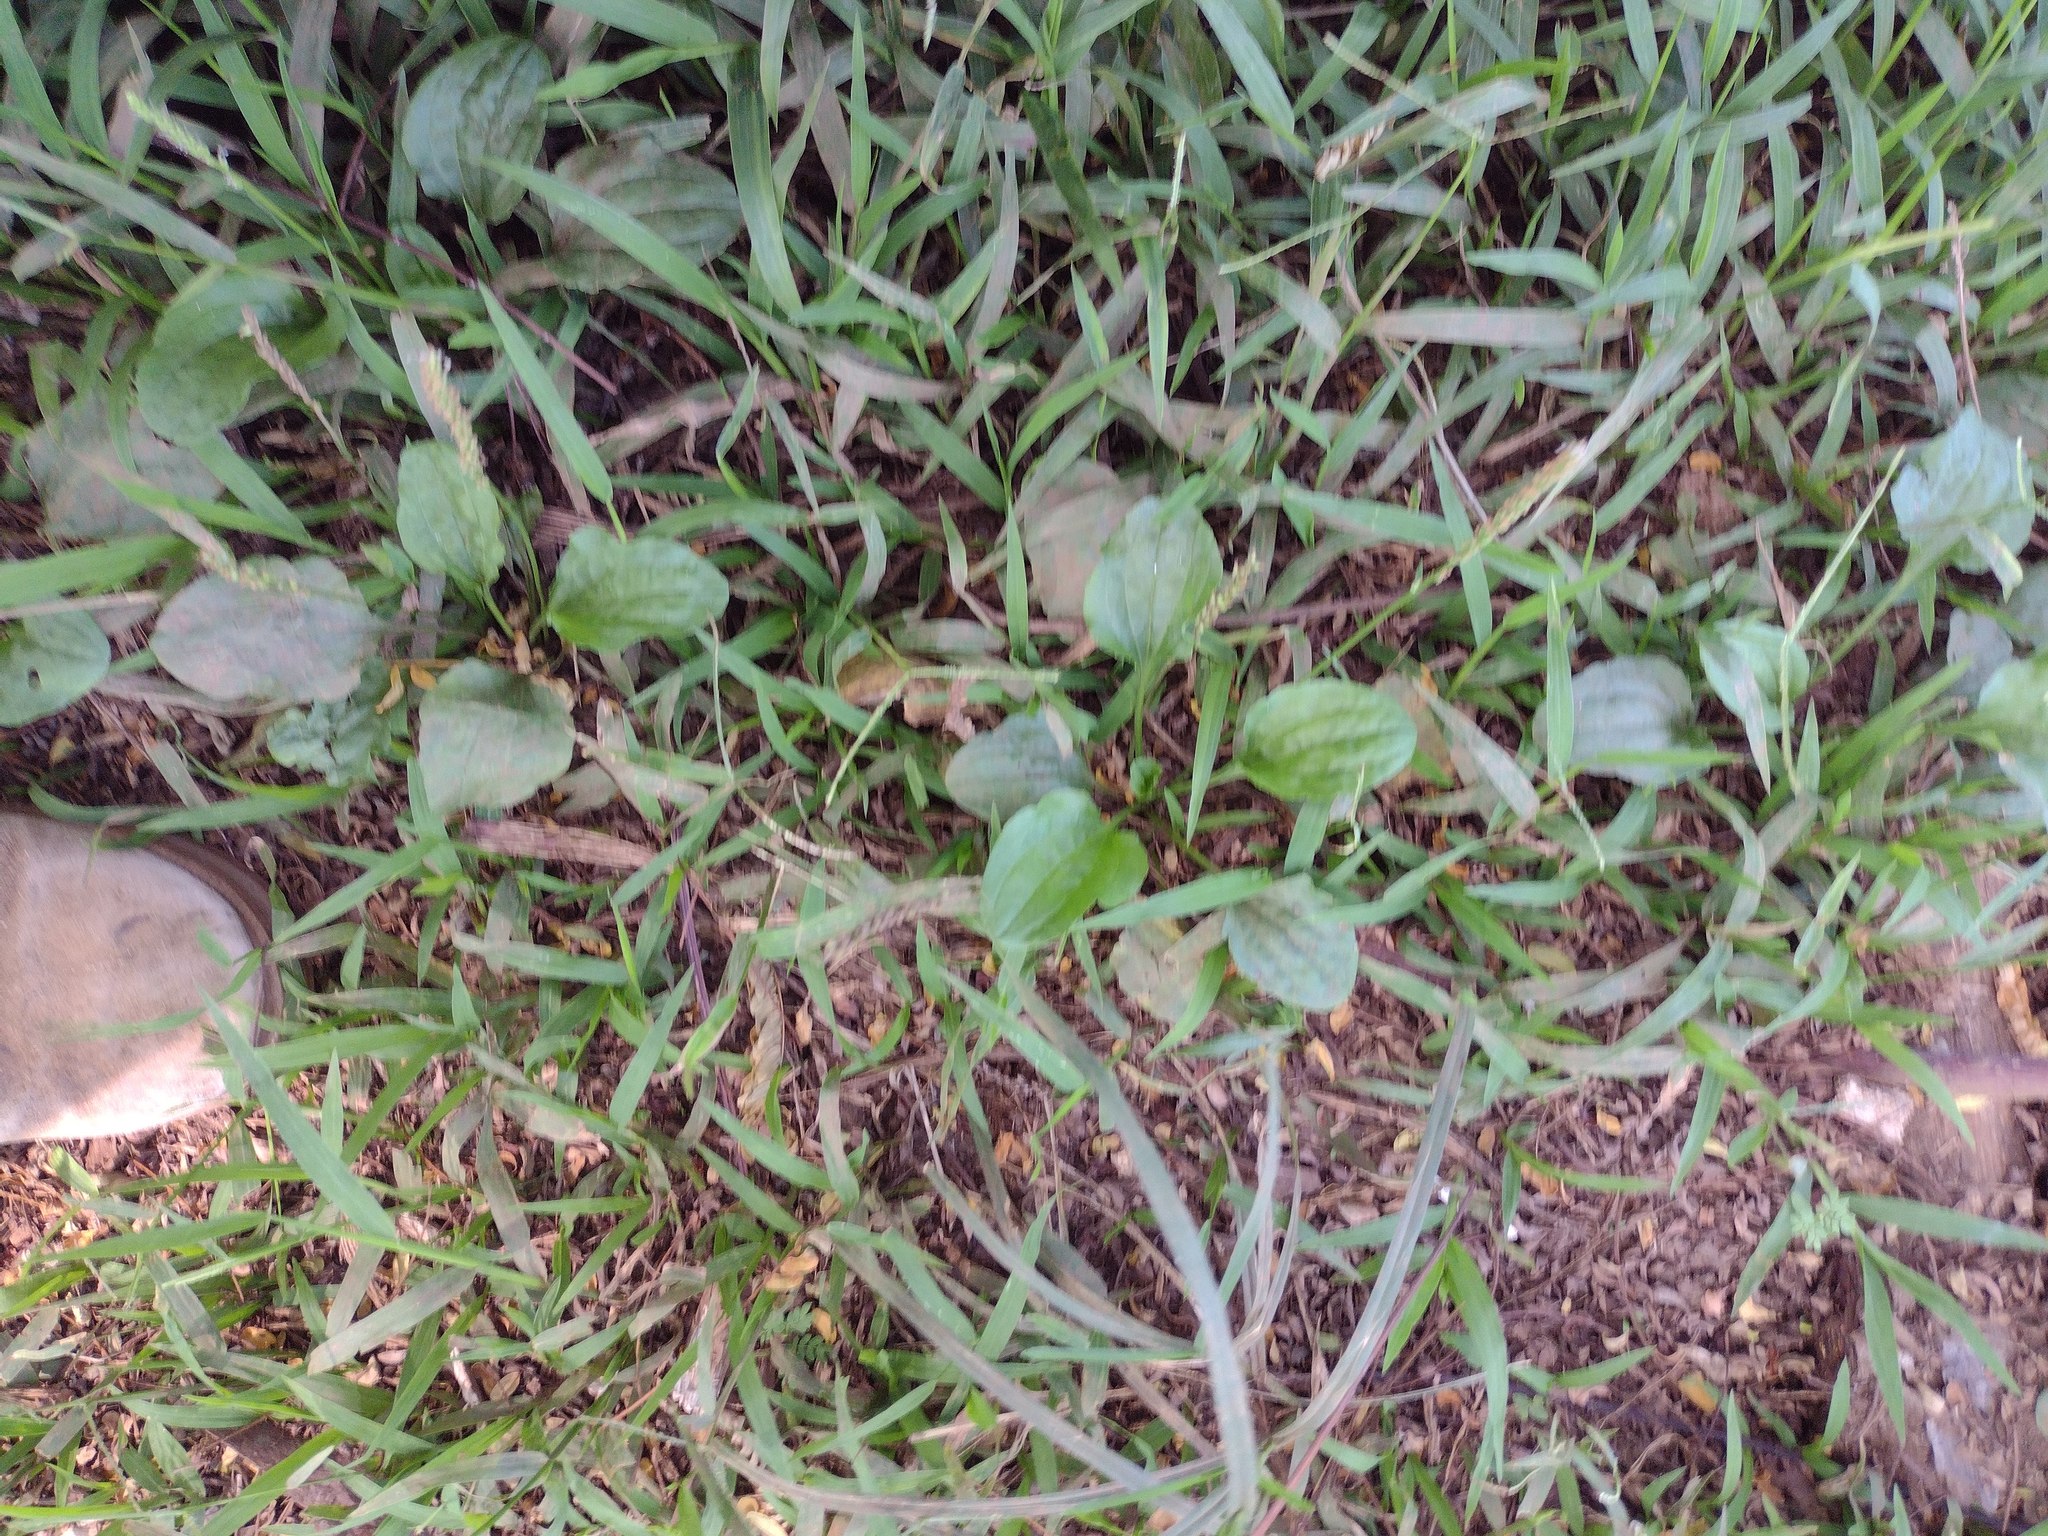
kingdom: Plantae
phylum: Tracheophyta
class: Magnoliopsida
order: Lamiales
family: Plantaginaceae
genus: Plantago
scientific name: Plantago major
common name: Common plantain
